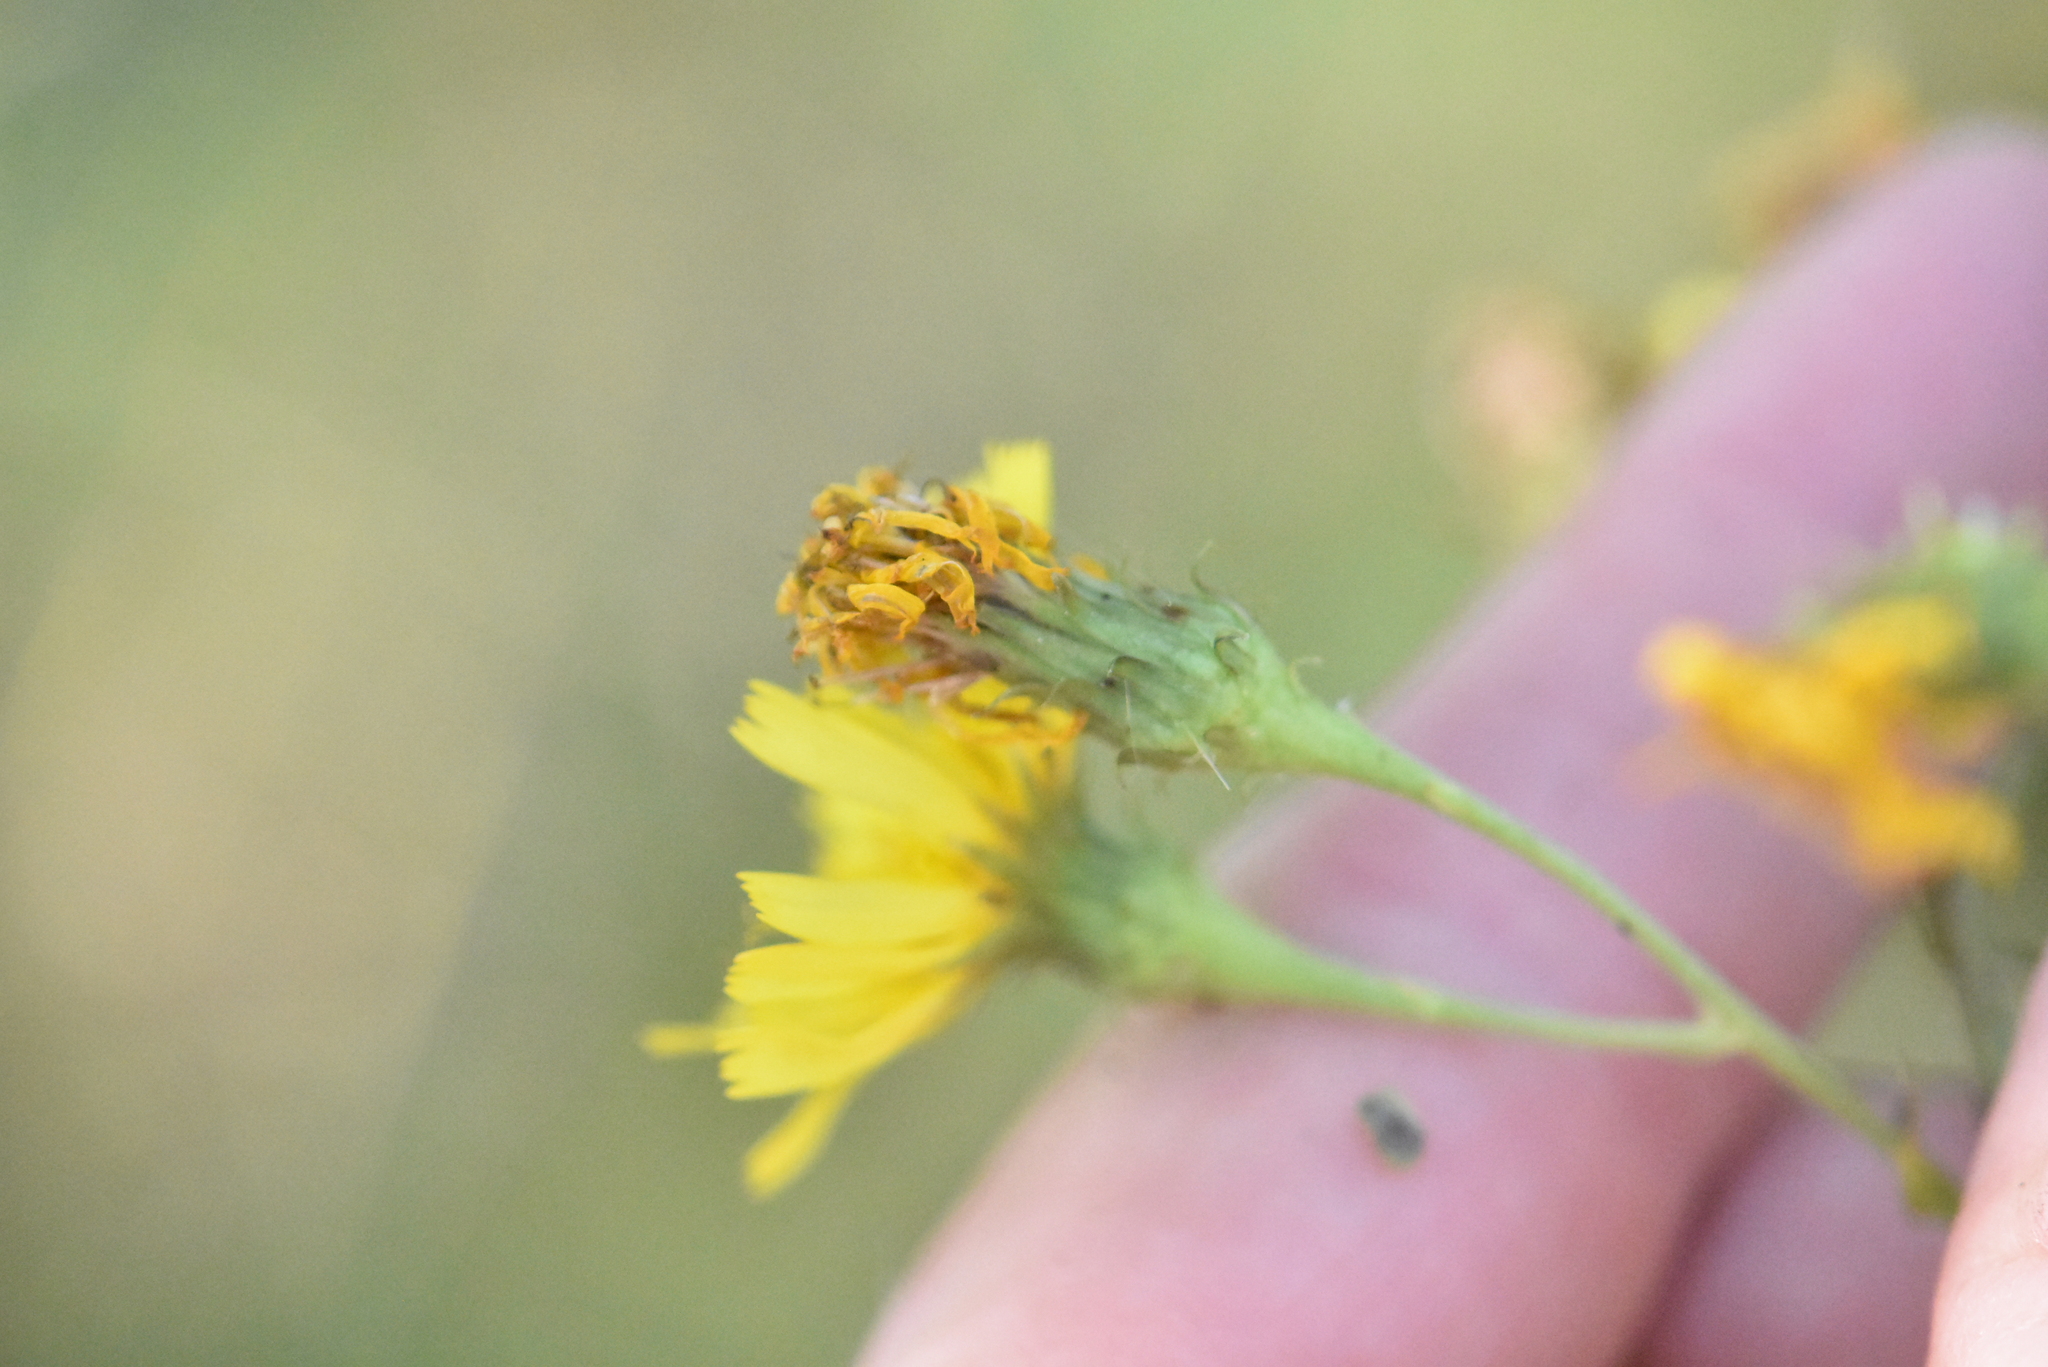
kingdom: Plantae
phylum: Tracheophyta
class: Magnoliopsida
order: Asterales
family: Asteraceae
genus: Hieracium
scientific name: Hieracium umbellatum
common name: Northern hawkweed
